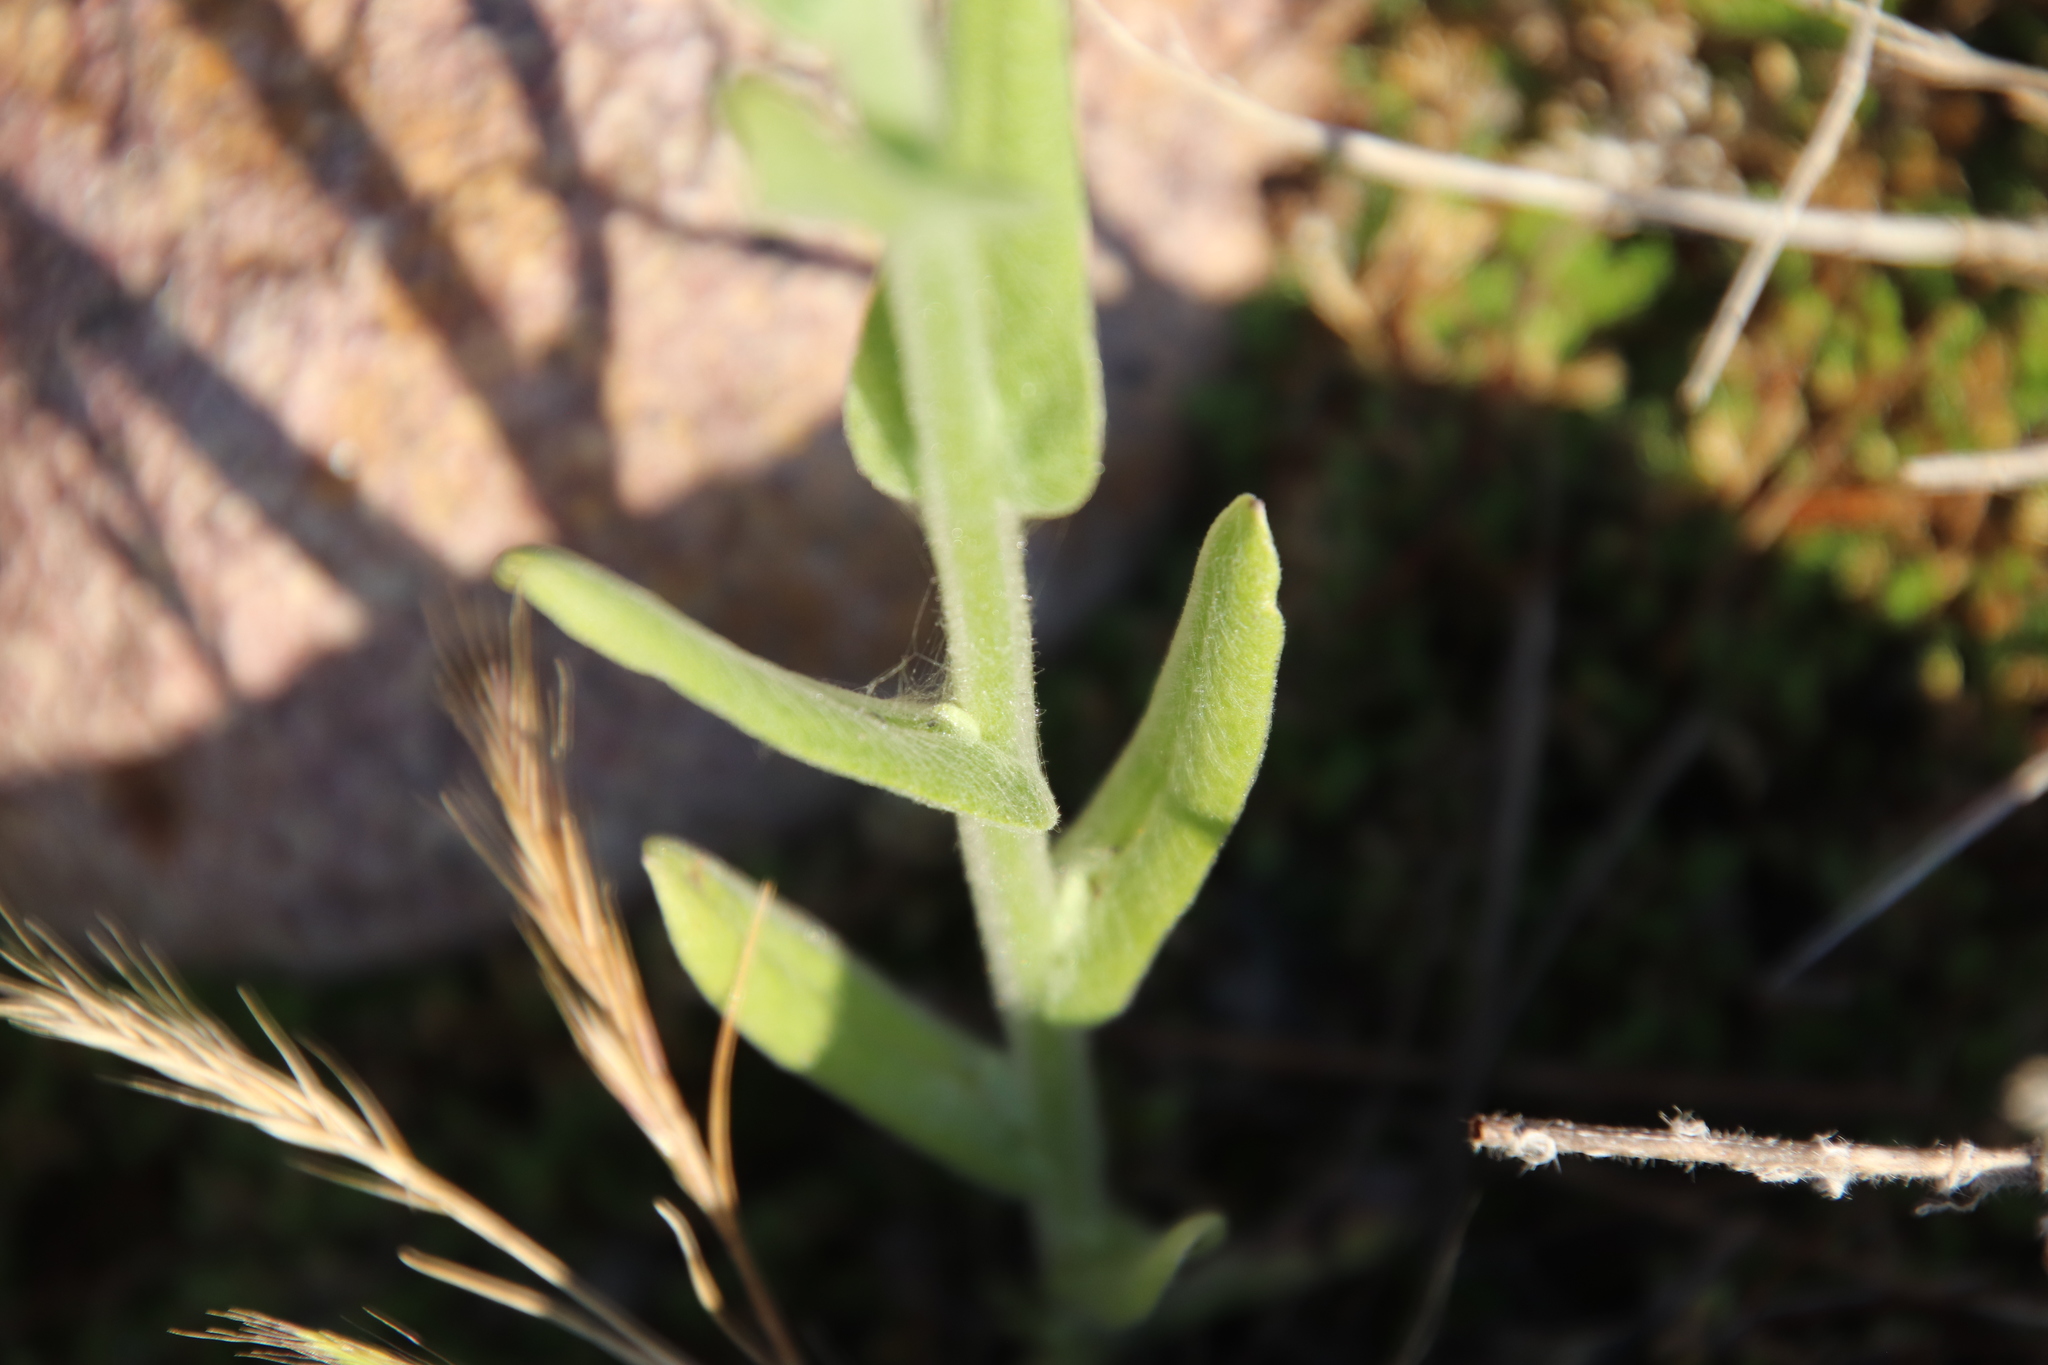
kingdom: Plantae
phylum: Tracheophyta
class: Magnoliopsida
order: Asterales
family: Asteraceae
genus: Pseudognaphalium
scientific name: Pseudognaphalium stramineum
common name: Cotton-batting-plant
